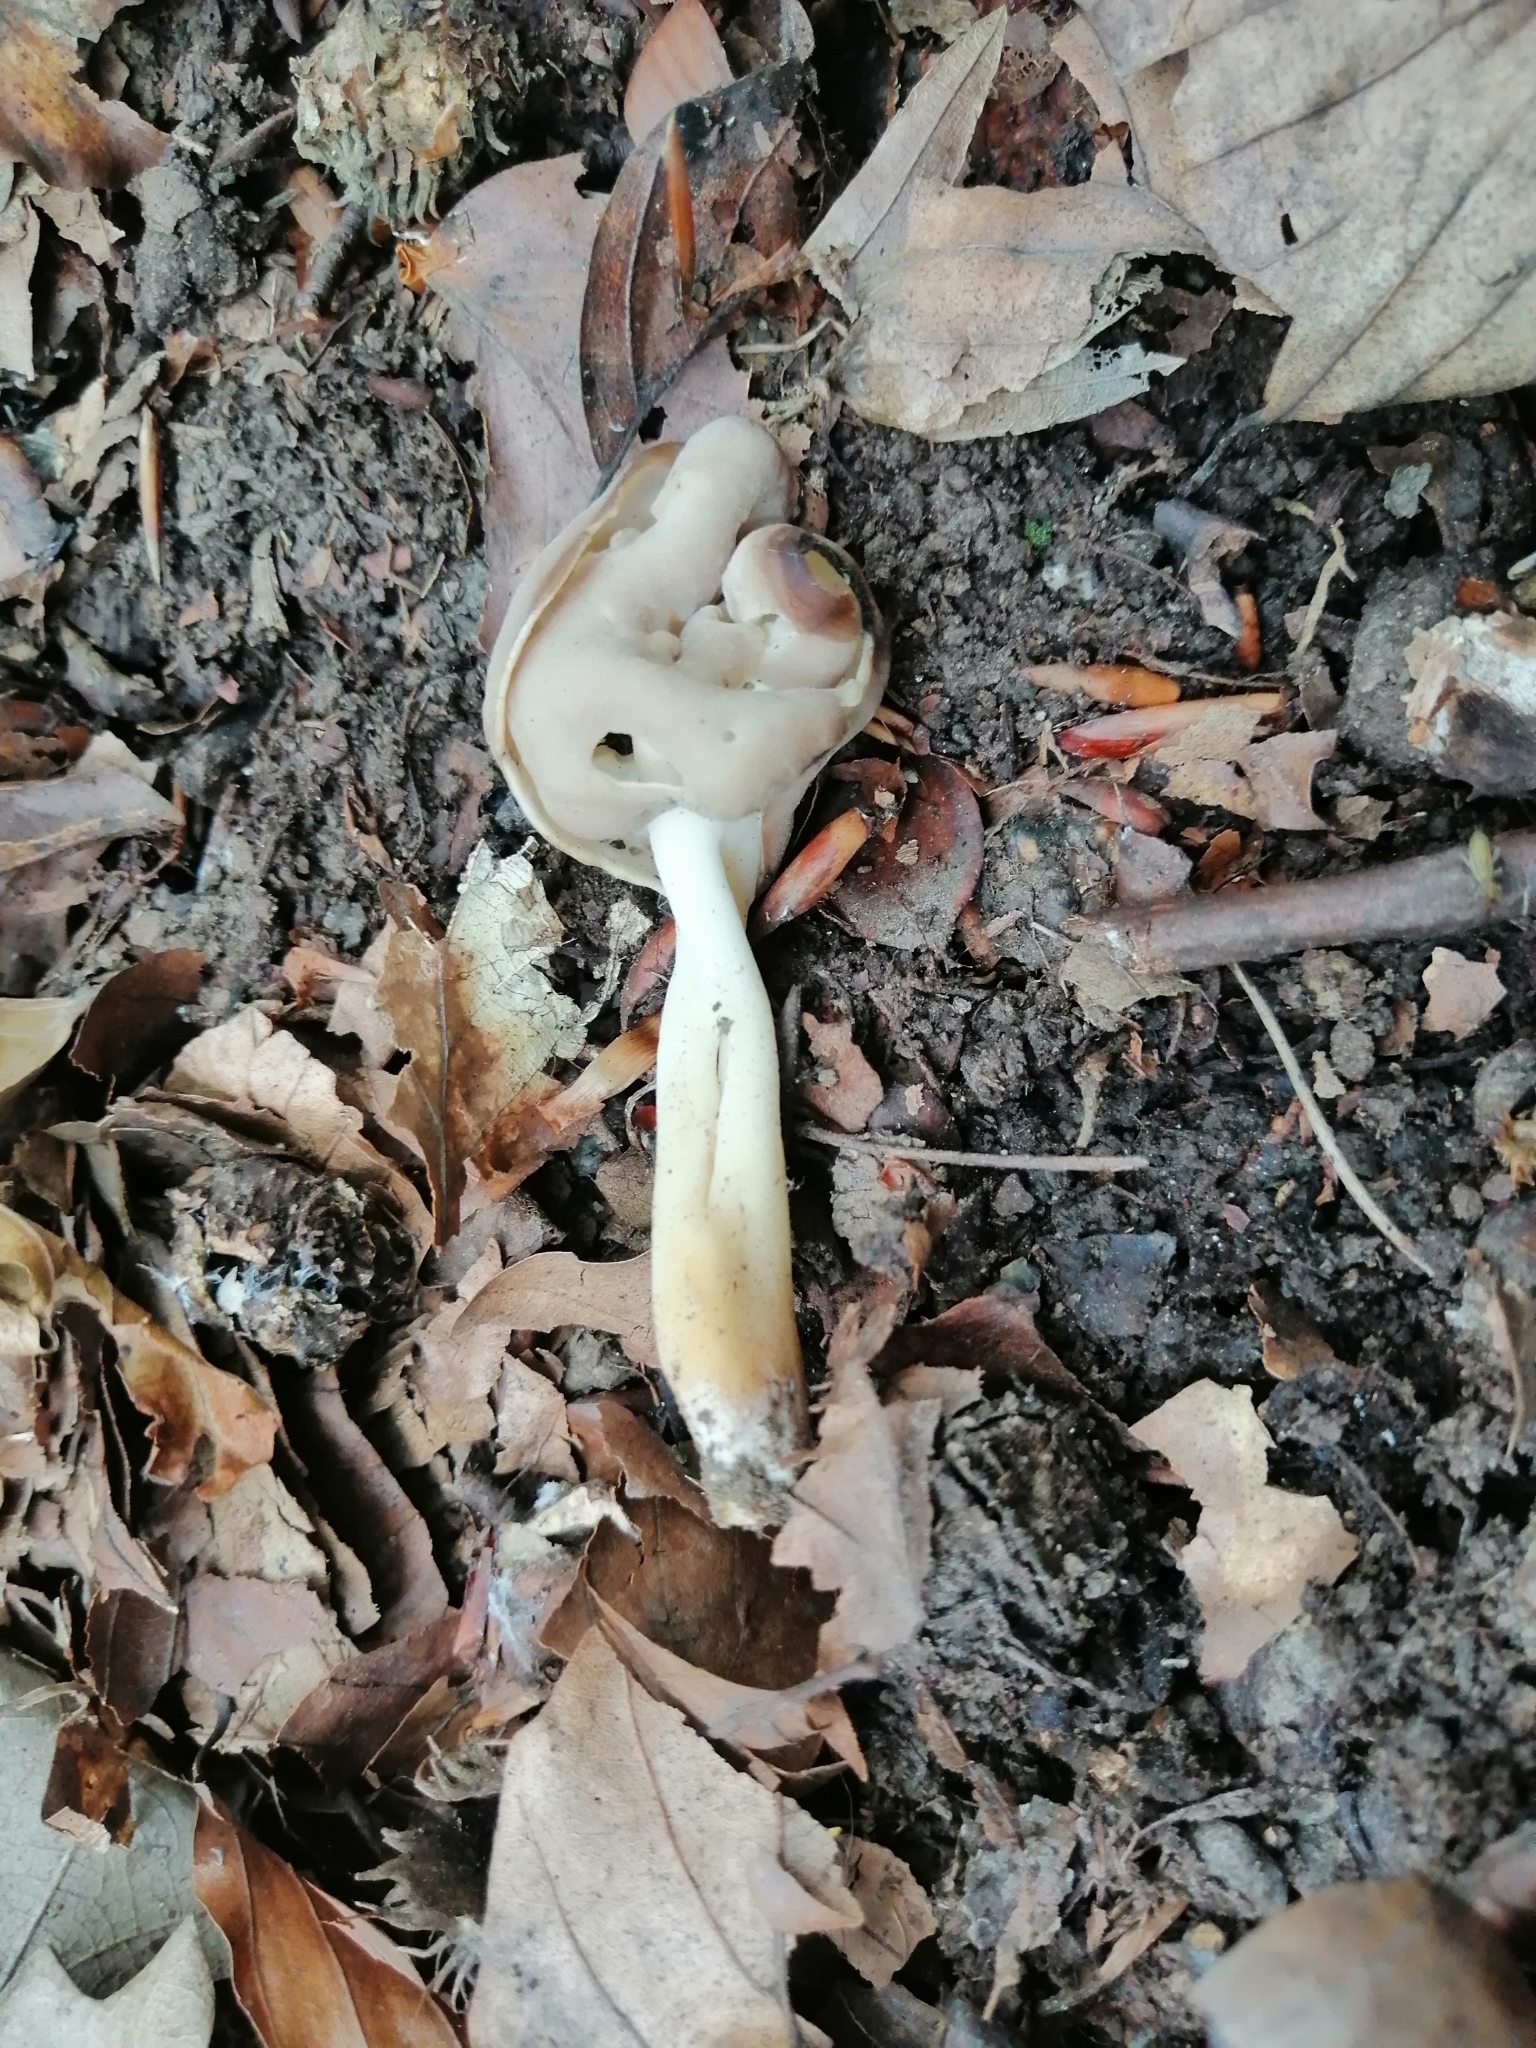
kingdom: Fungi
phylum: Ascomycota
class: Pezizomycetes
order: Pezizales
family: Helvellaceae
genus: Helvella
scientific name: Helvella elastica
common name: Elastic saddle
